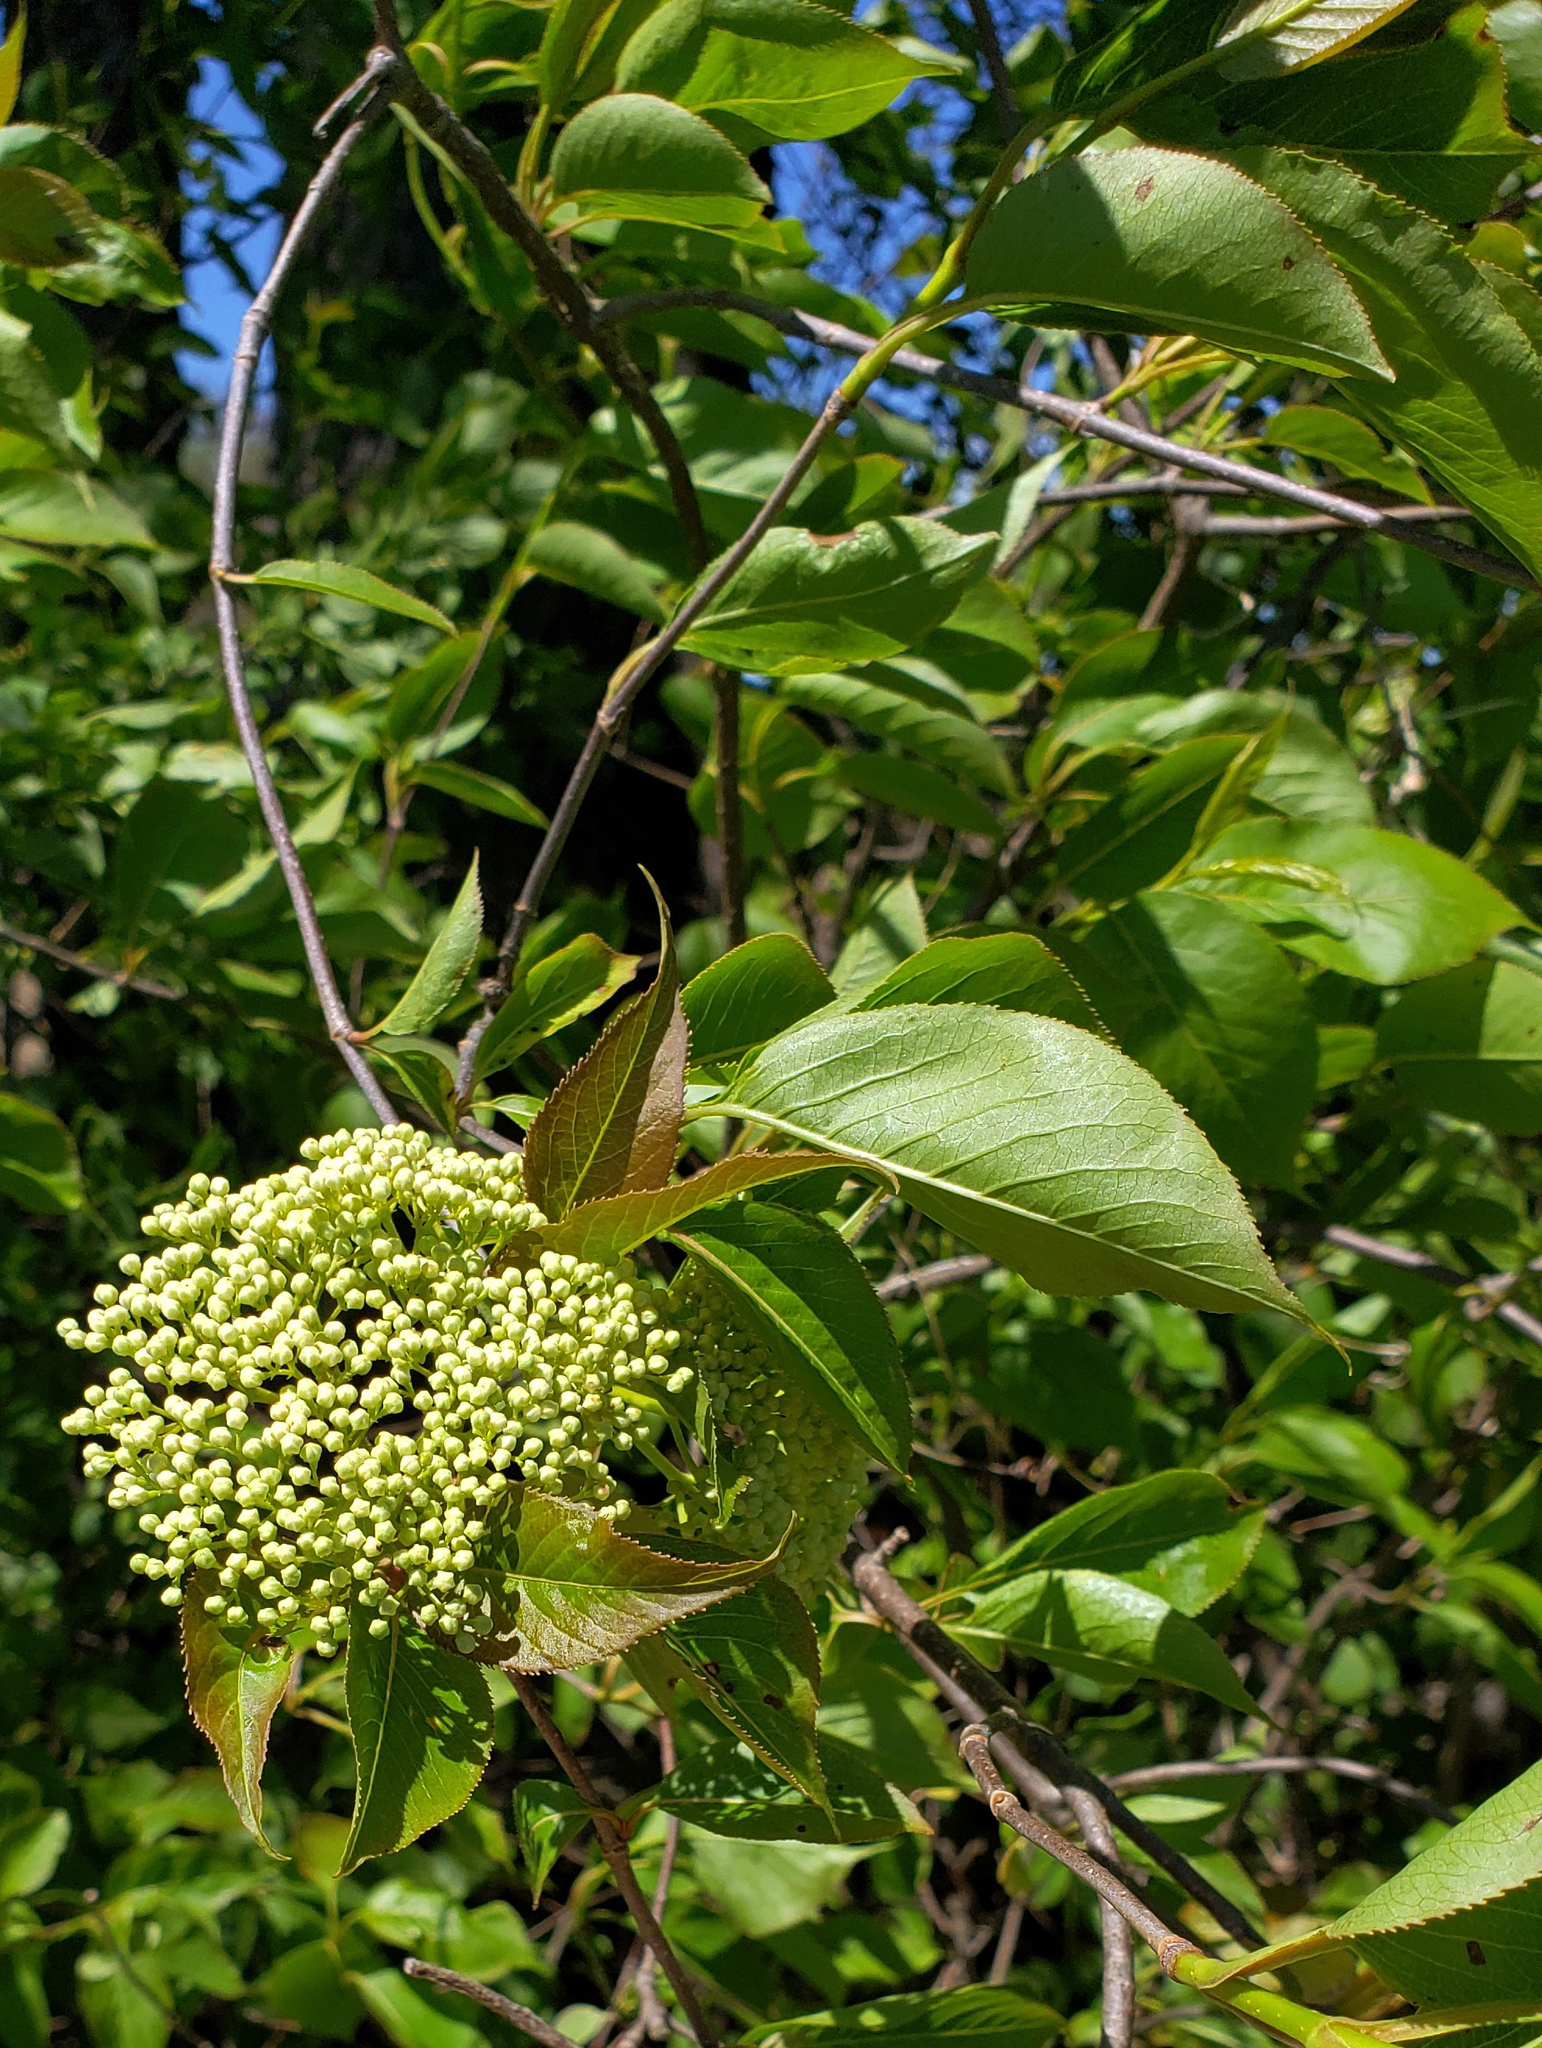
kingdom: Plantae
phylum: Tracheophyta
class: Magnoliopsida
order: Dipsacales
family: Viburnaceae
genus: Viburnum
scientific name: Viburnum lentago
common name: Black haw
